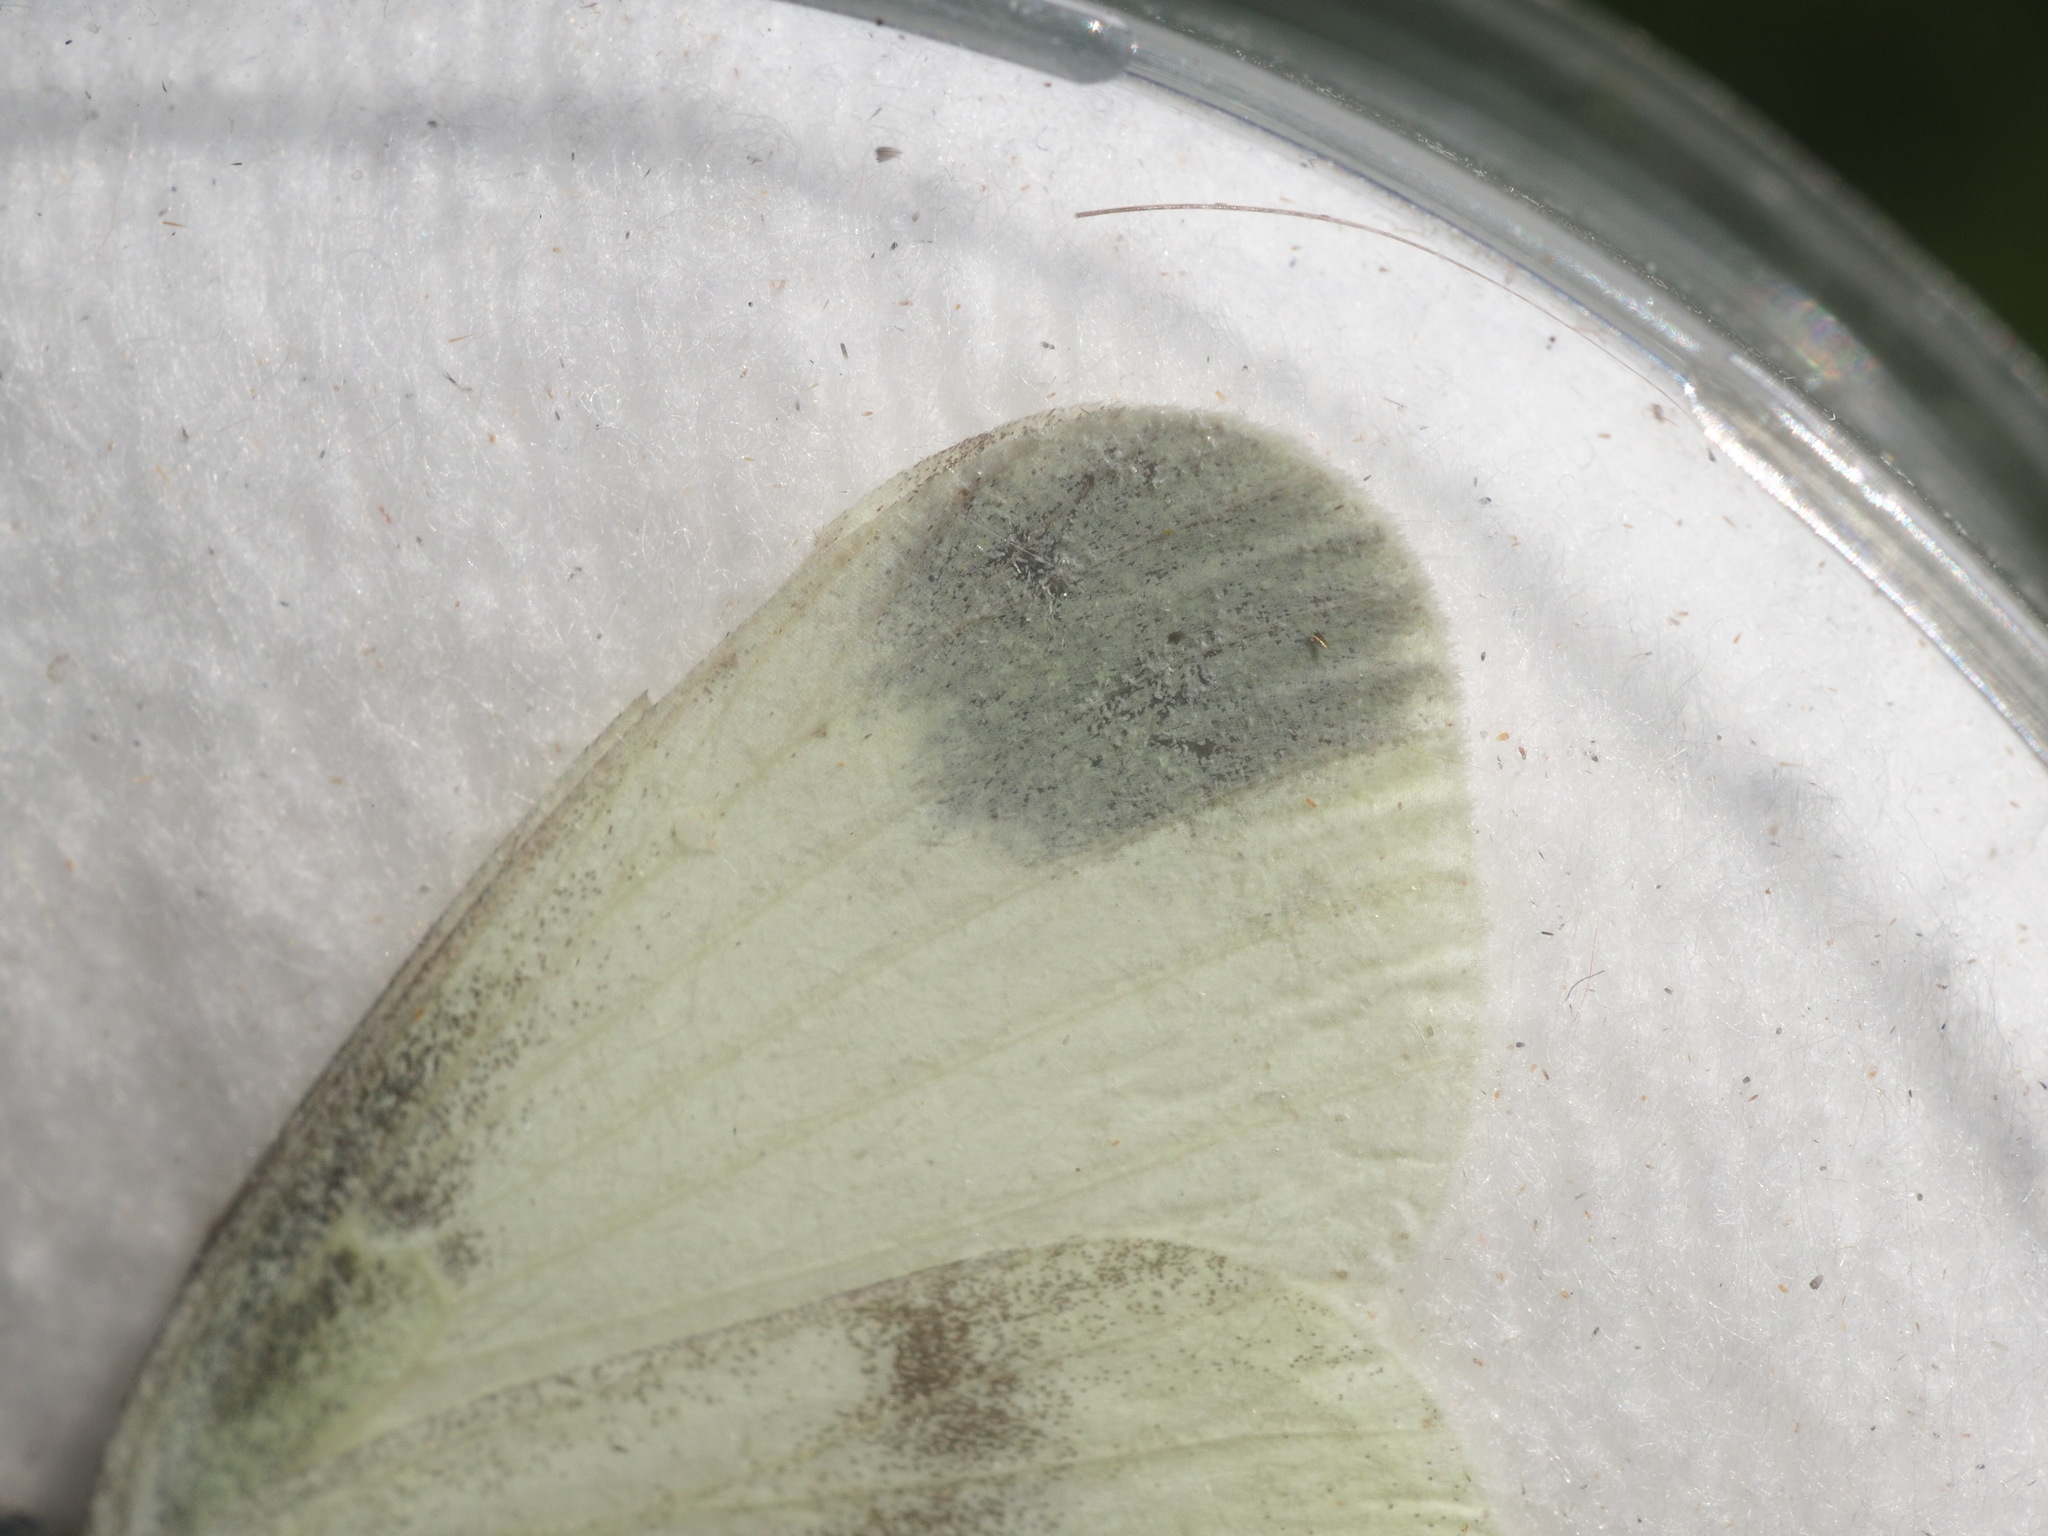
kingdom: Animalia
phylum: Arthropoda
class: Insecta
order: Lepidoptera
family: Pieridae
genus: Leptidea
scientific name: Leptidea
